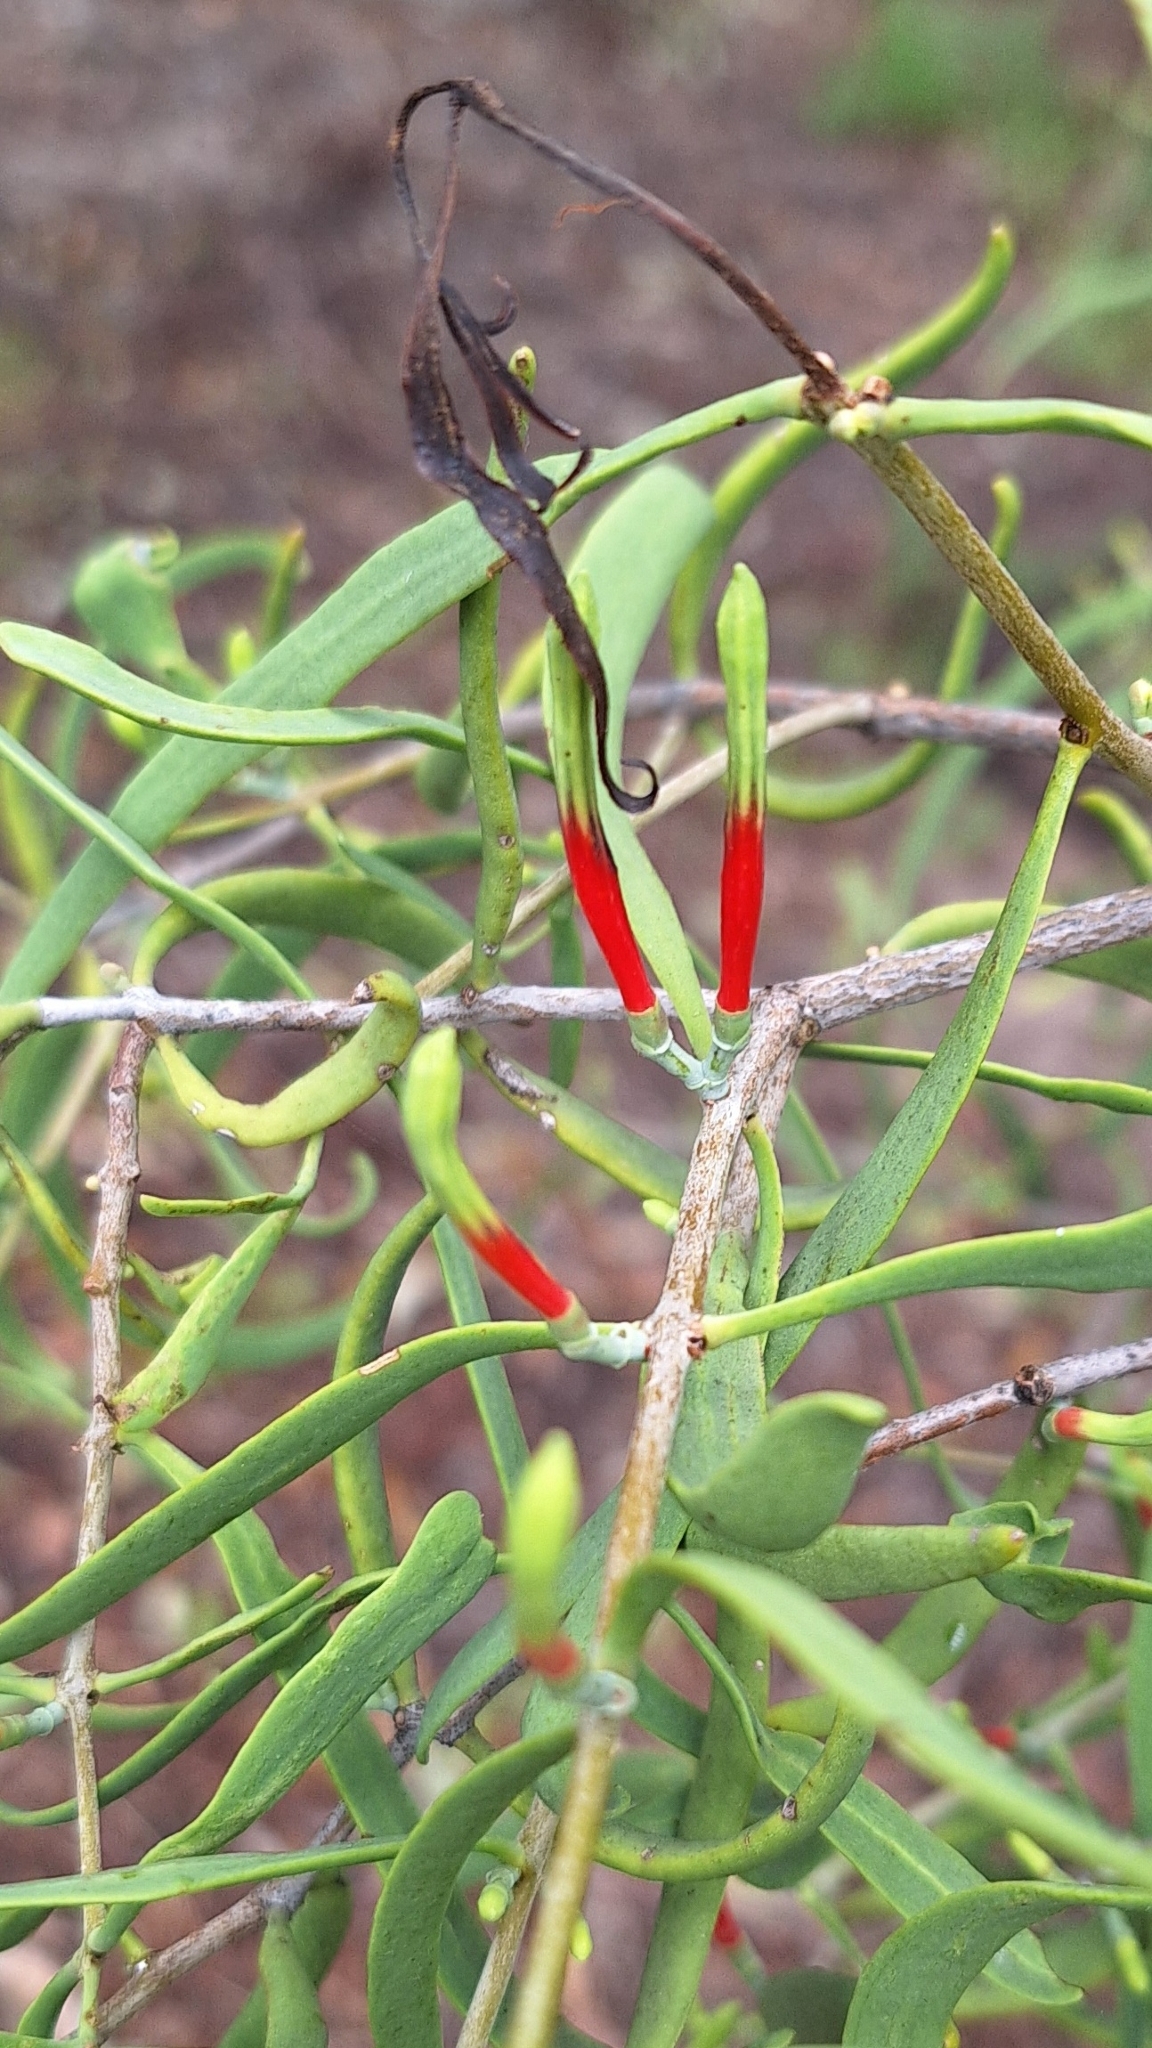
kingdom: Plantae
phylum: Tracheophyta
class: Magnoliopsida
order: Santalales
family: Loranthaceae
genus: Lysiana
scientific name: Lysiana exocarpi
